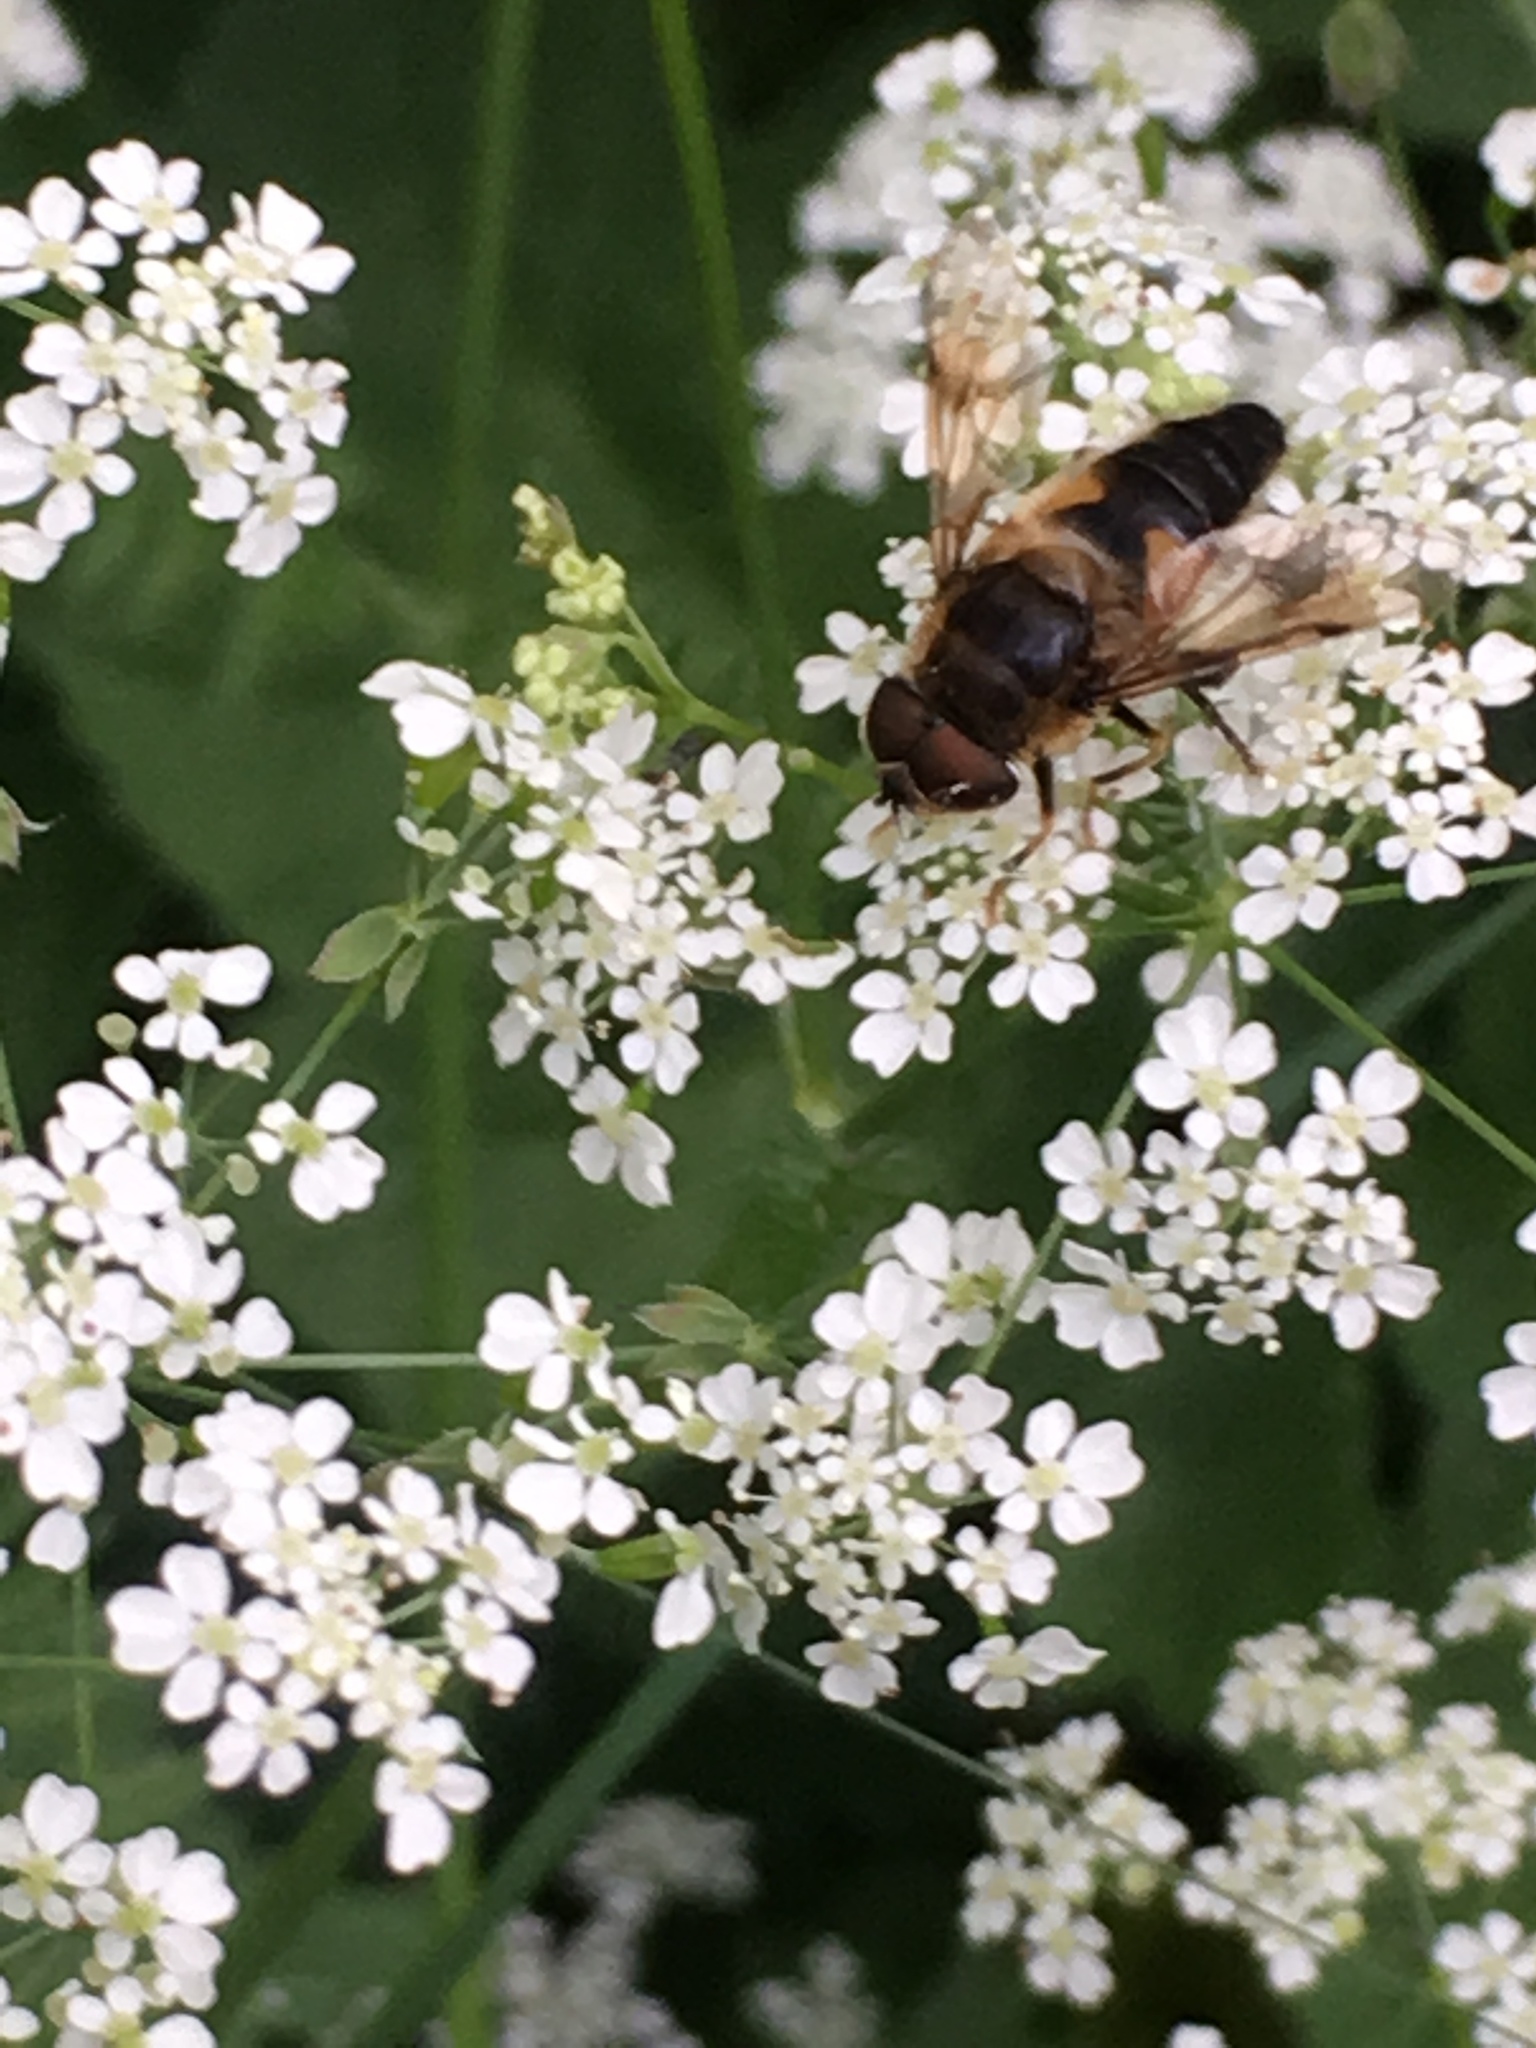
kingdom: Animalia
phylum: Arthropoda
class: Insecta
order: Diptera
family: Syrphidae
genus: Eristalis
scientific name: Eristalis pertinax
